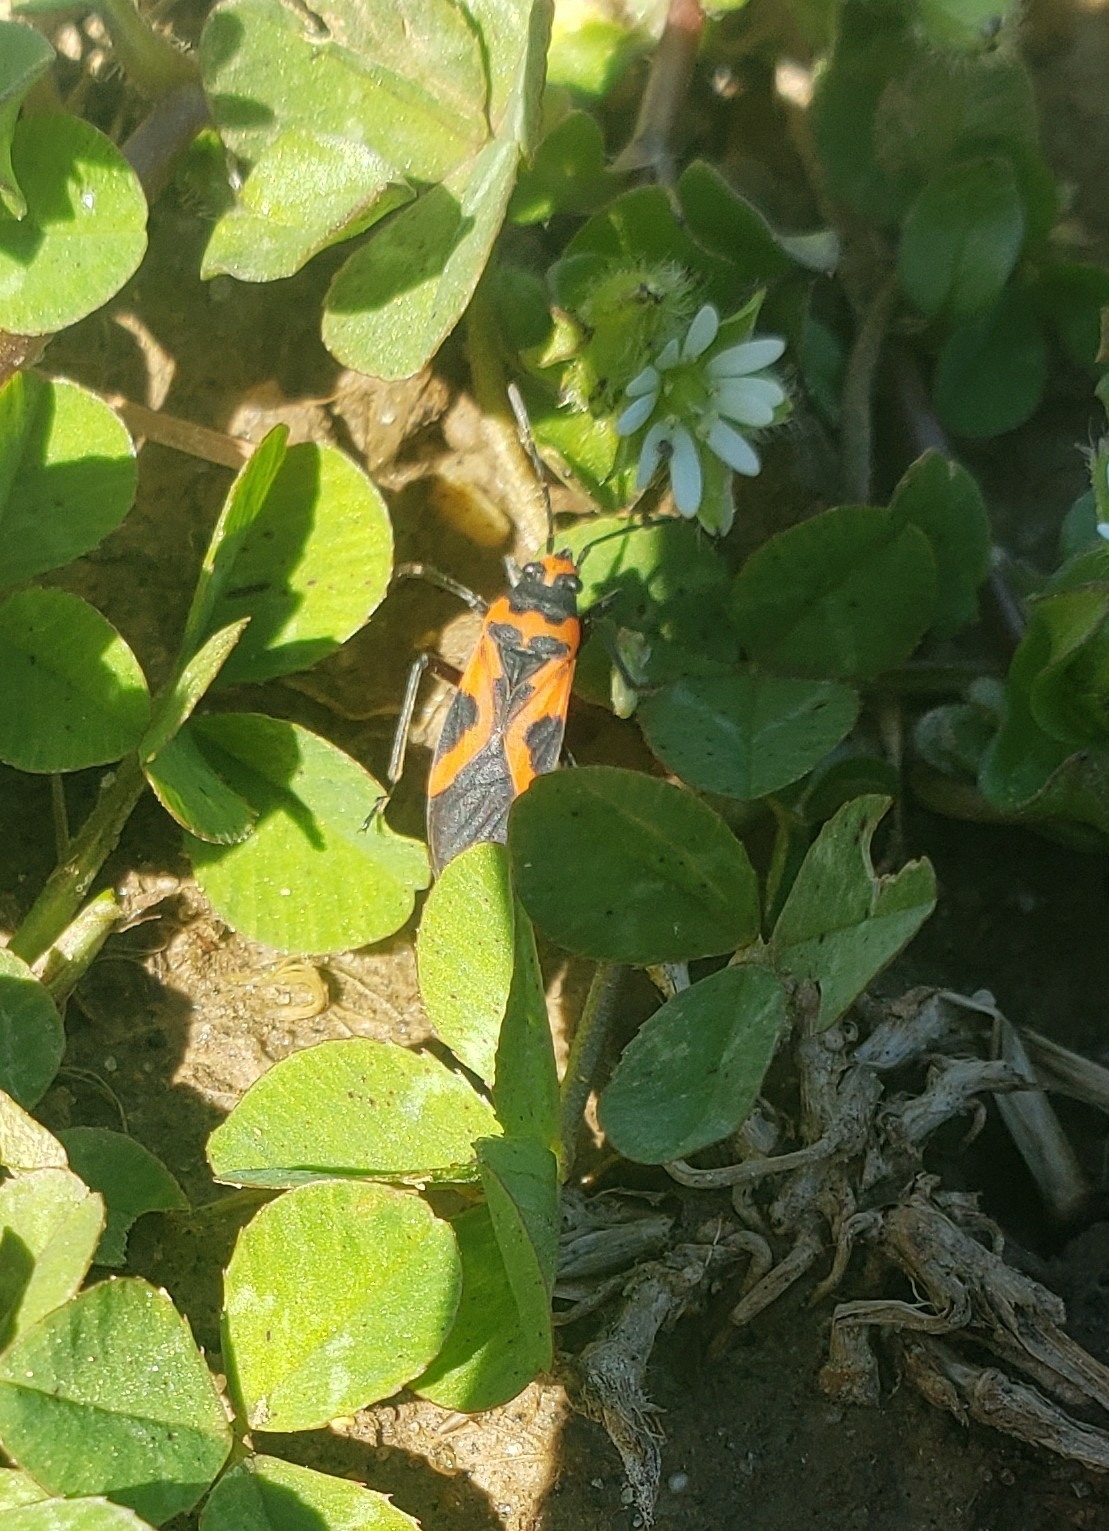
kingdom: Animalia
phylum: Arthropoda
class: Insecta
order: Hemiptera
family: Lygaeidae
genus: Lygaeus
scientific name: Lygaeus turcicus
